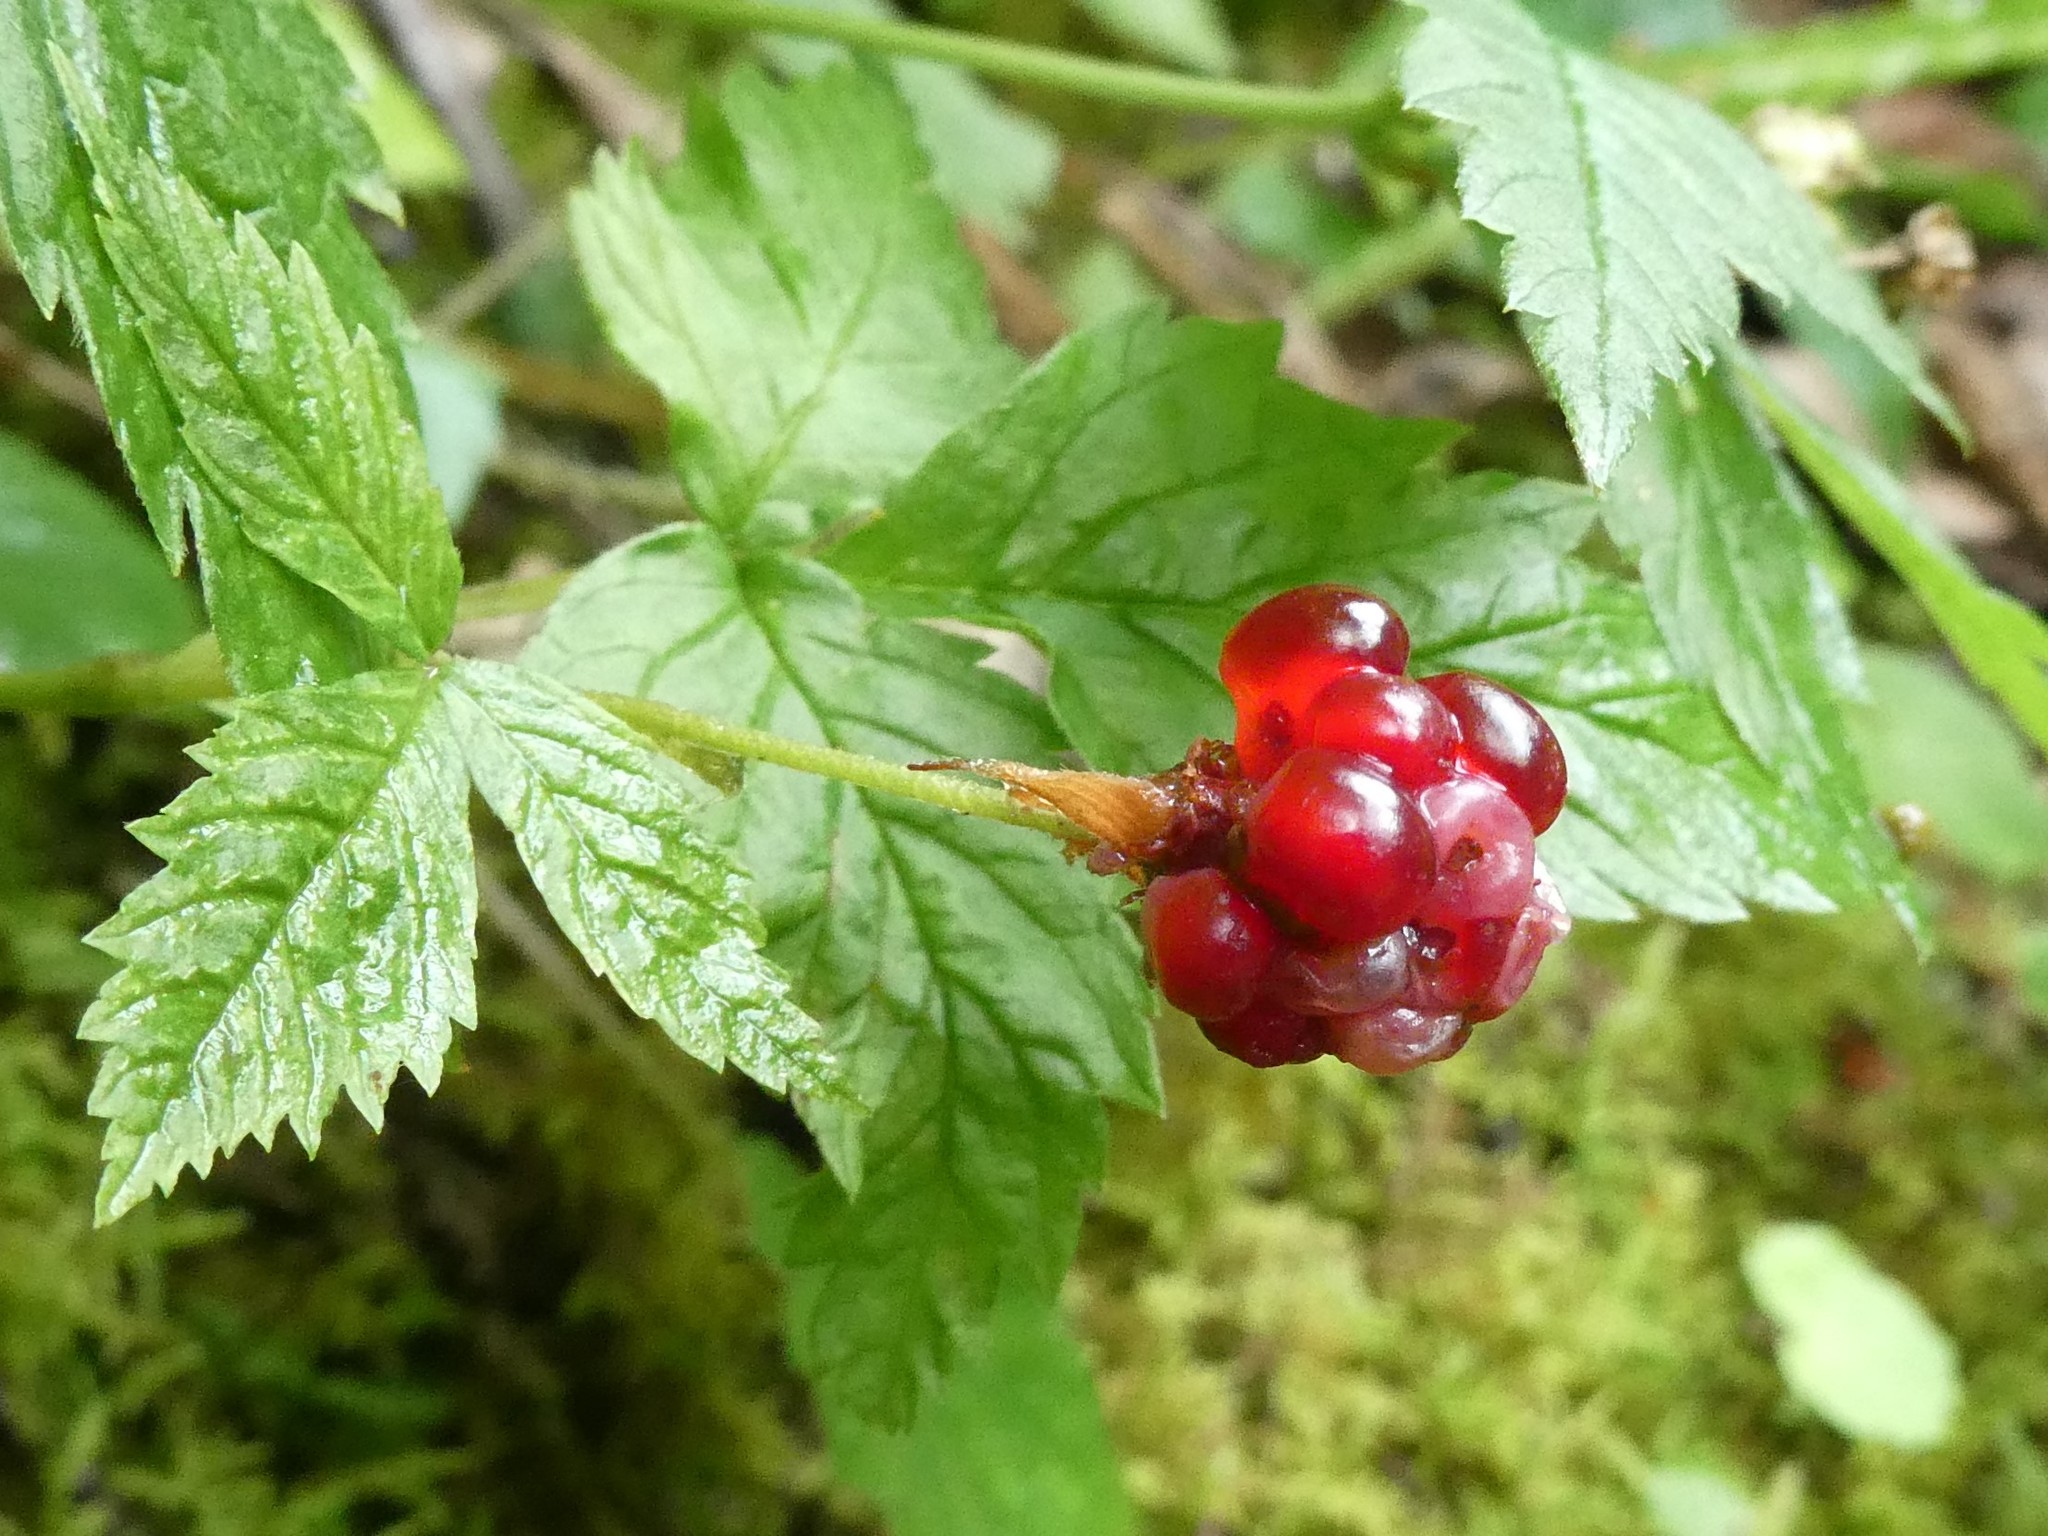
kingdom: Plantae
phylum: Tracheophyta
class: Magnoliopsida
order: Rosales
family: Rosaceae
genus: Rubus
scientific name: Rubus pubescens
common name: Dwarf raspberry
